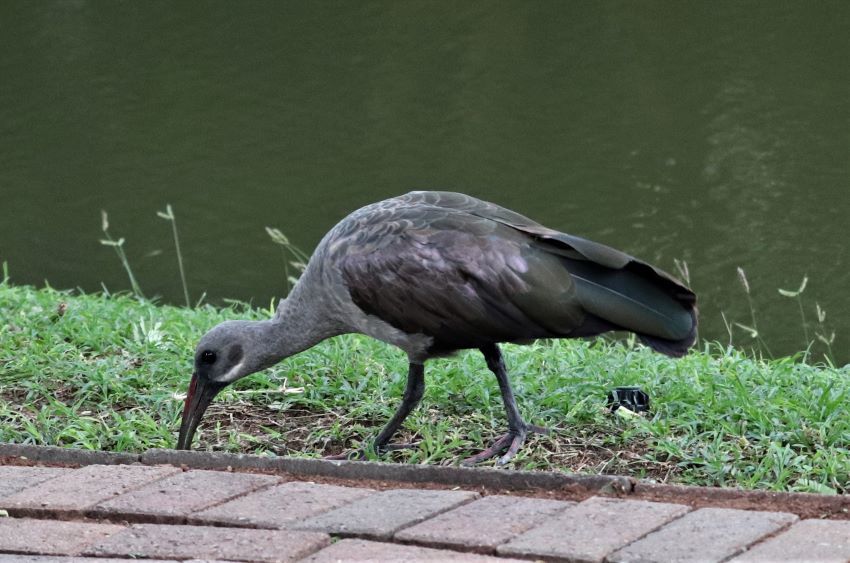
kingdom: Animalia
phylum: Chordata
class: Aves
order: Pelecaniformes
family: Threskiornithidae
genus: Bostrychia
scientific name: Bostrychia hagedash
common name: Hadada ibis
